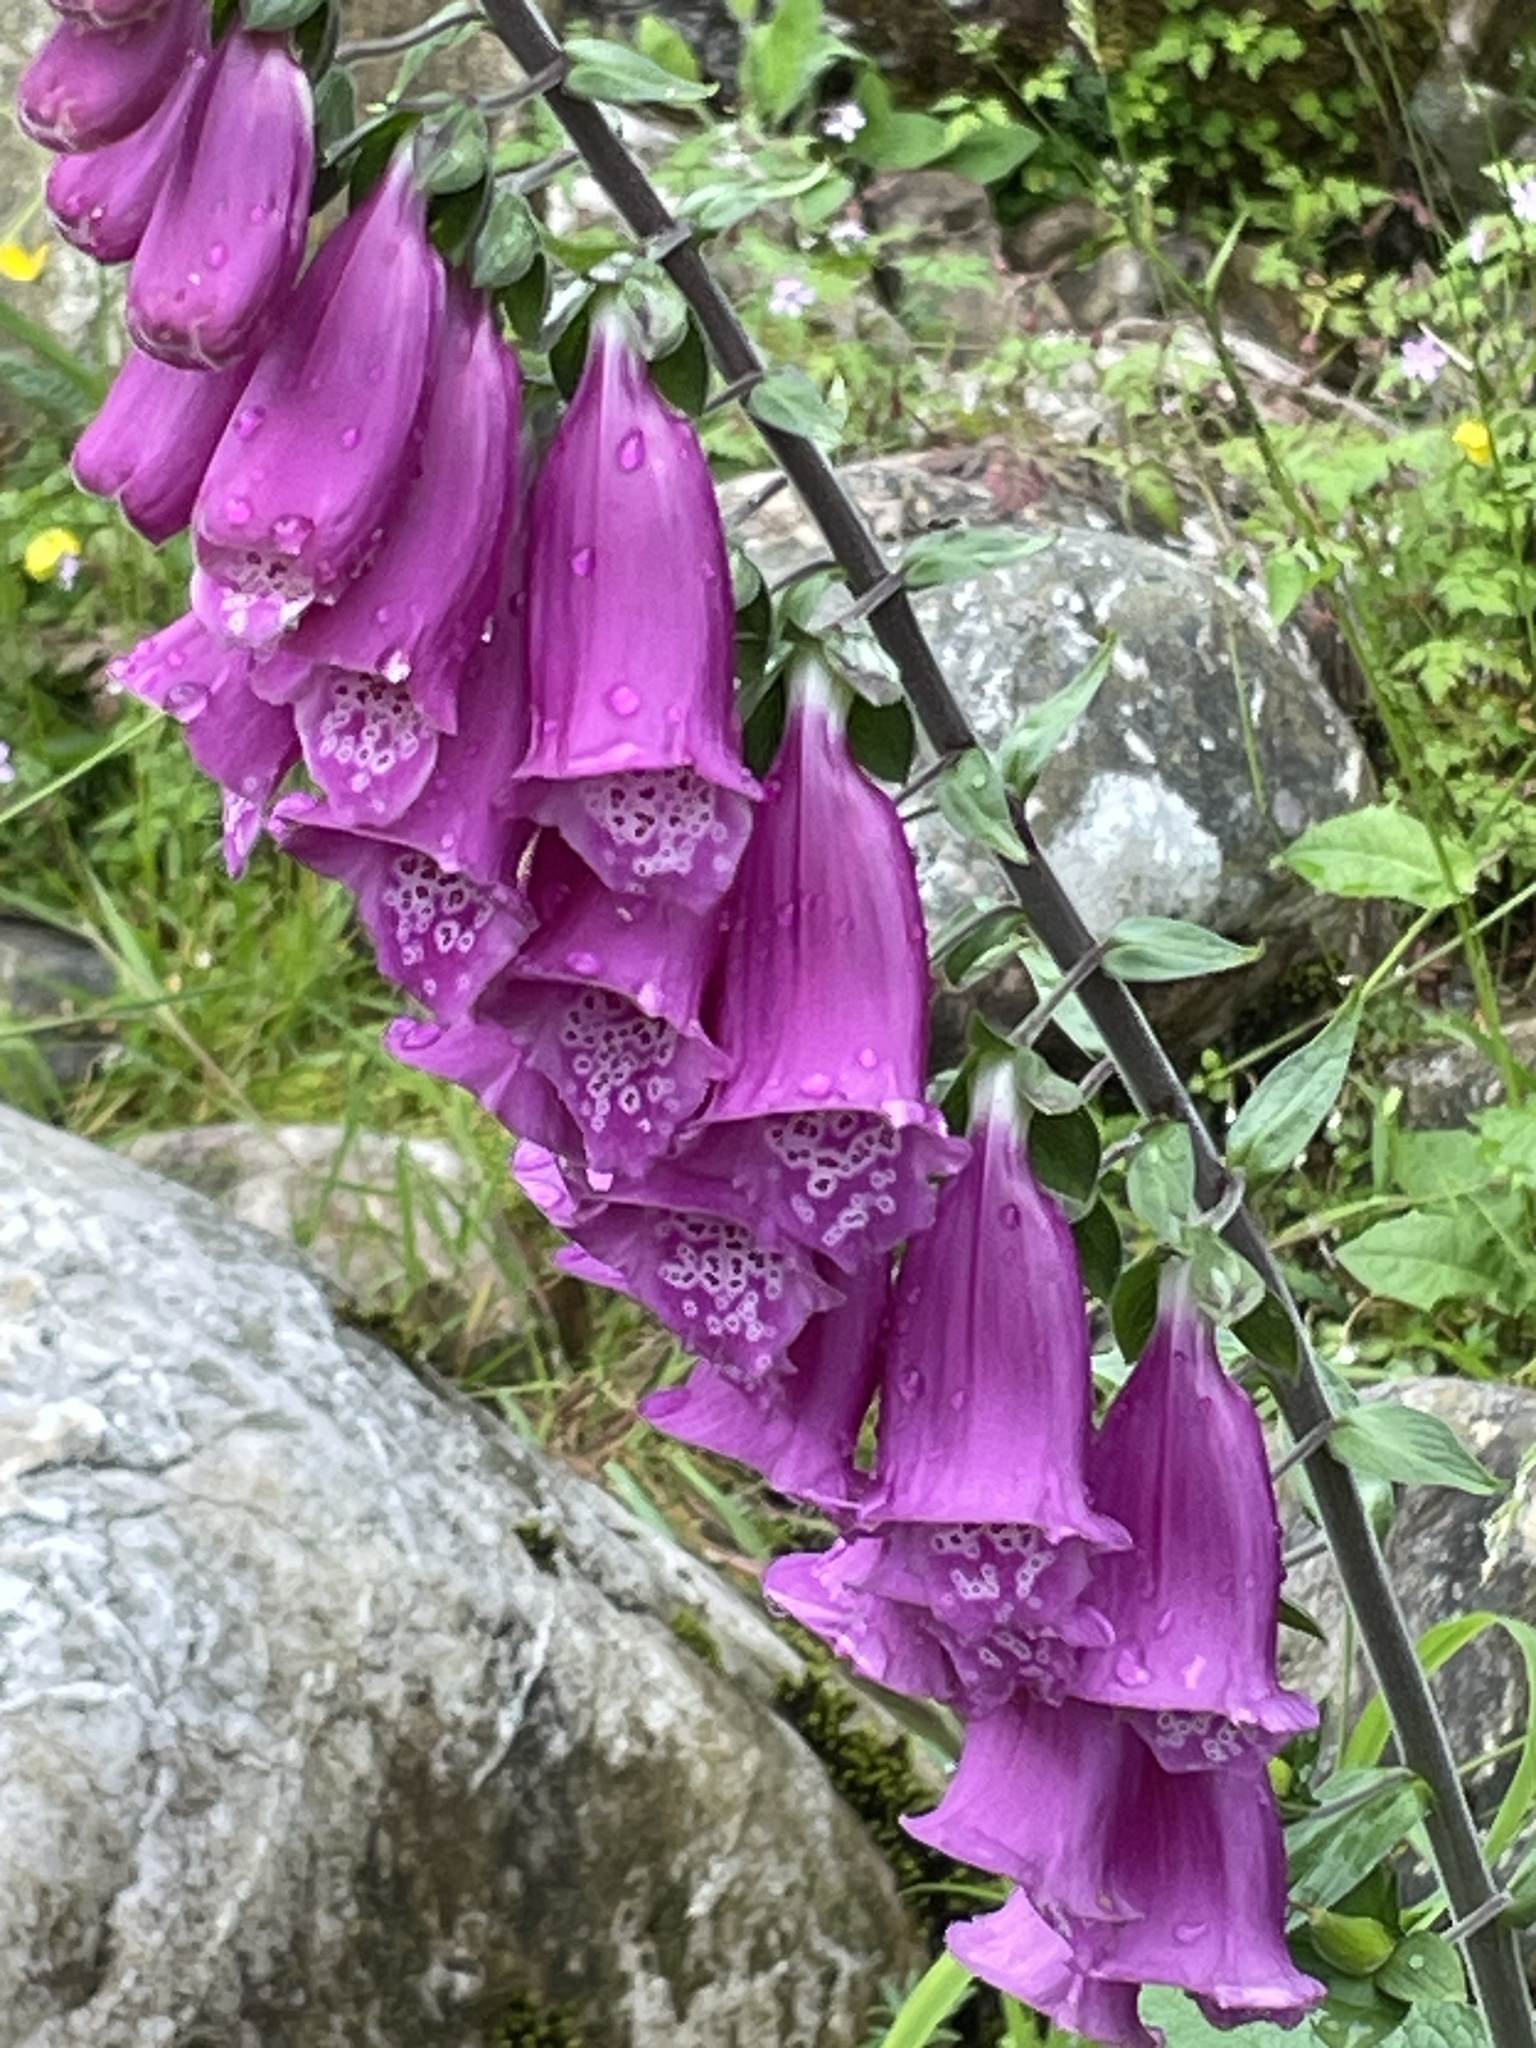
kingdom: Plantae
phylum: Tracheophyta
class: Magnoliopsida
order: Lamiales
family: Plantaginaceae
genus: Digitalis
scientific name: Digitalis purpurea
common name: Foxglove
